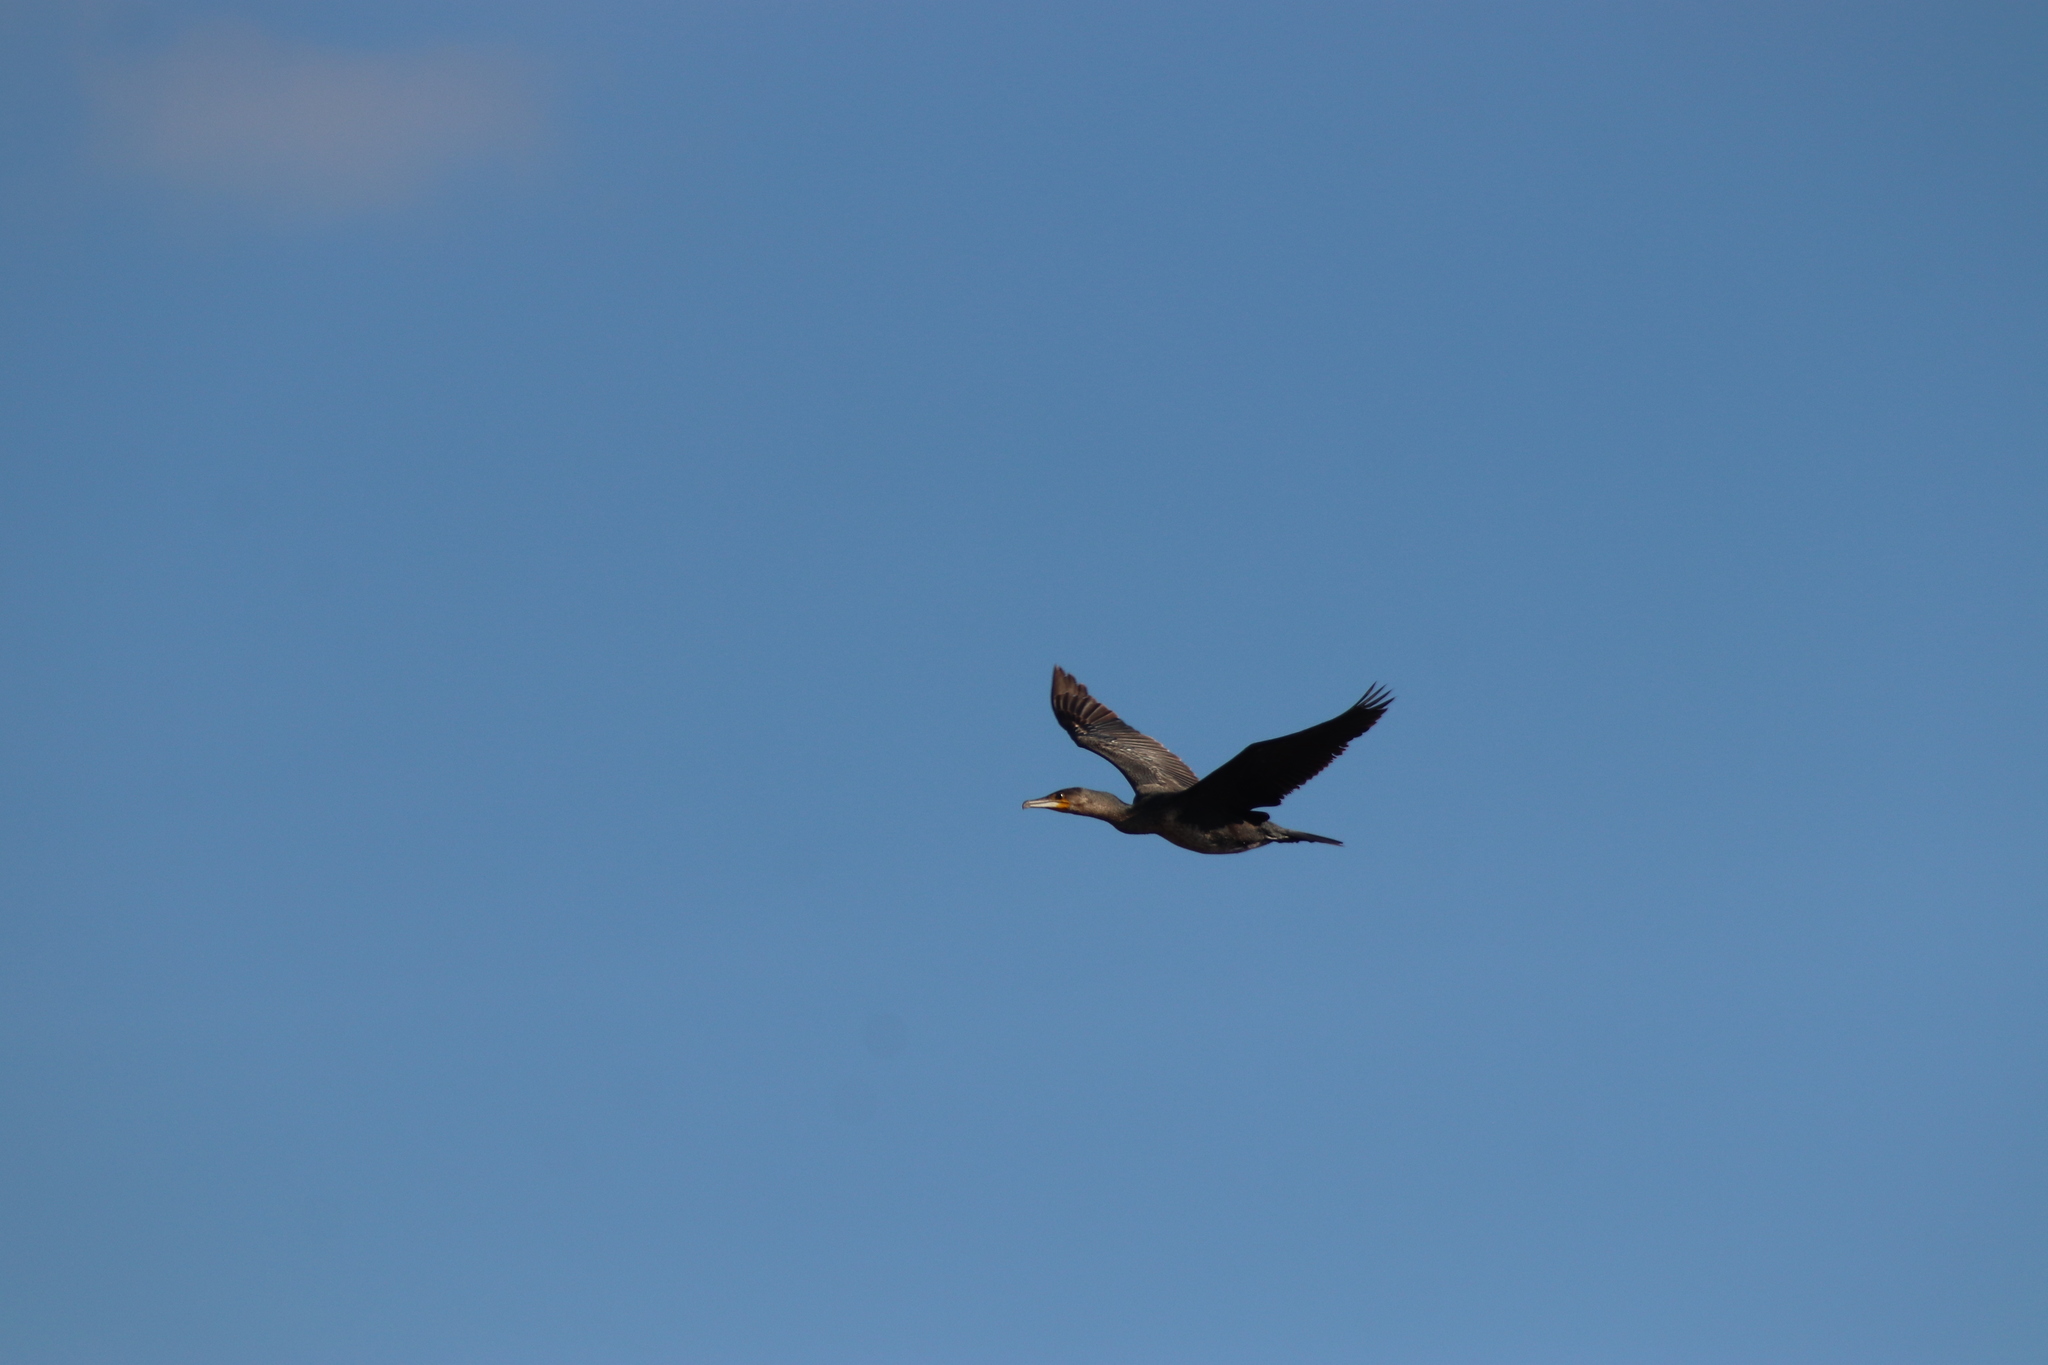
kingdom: Animalia
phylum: Chordata
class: Aves
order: Suliformes
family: Phalacrocoracidae
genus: Phalacrocorax
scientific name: Phalacrocorax carbo
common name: Great cormorant
